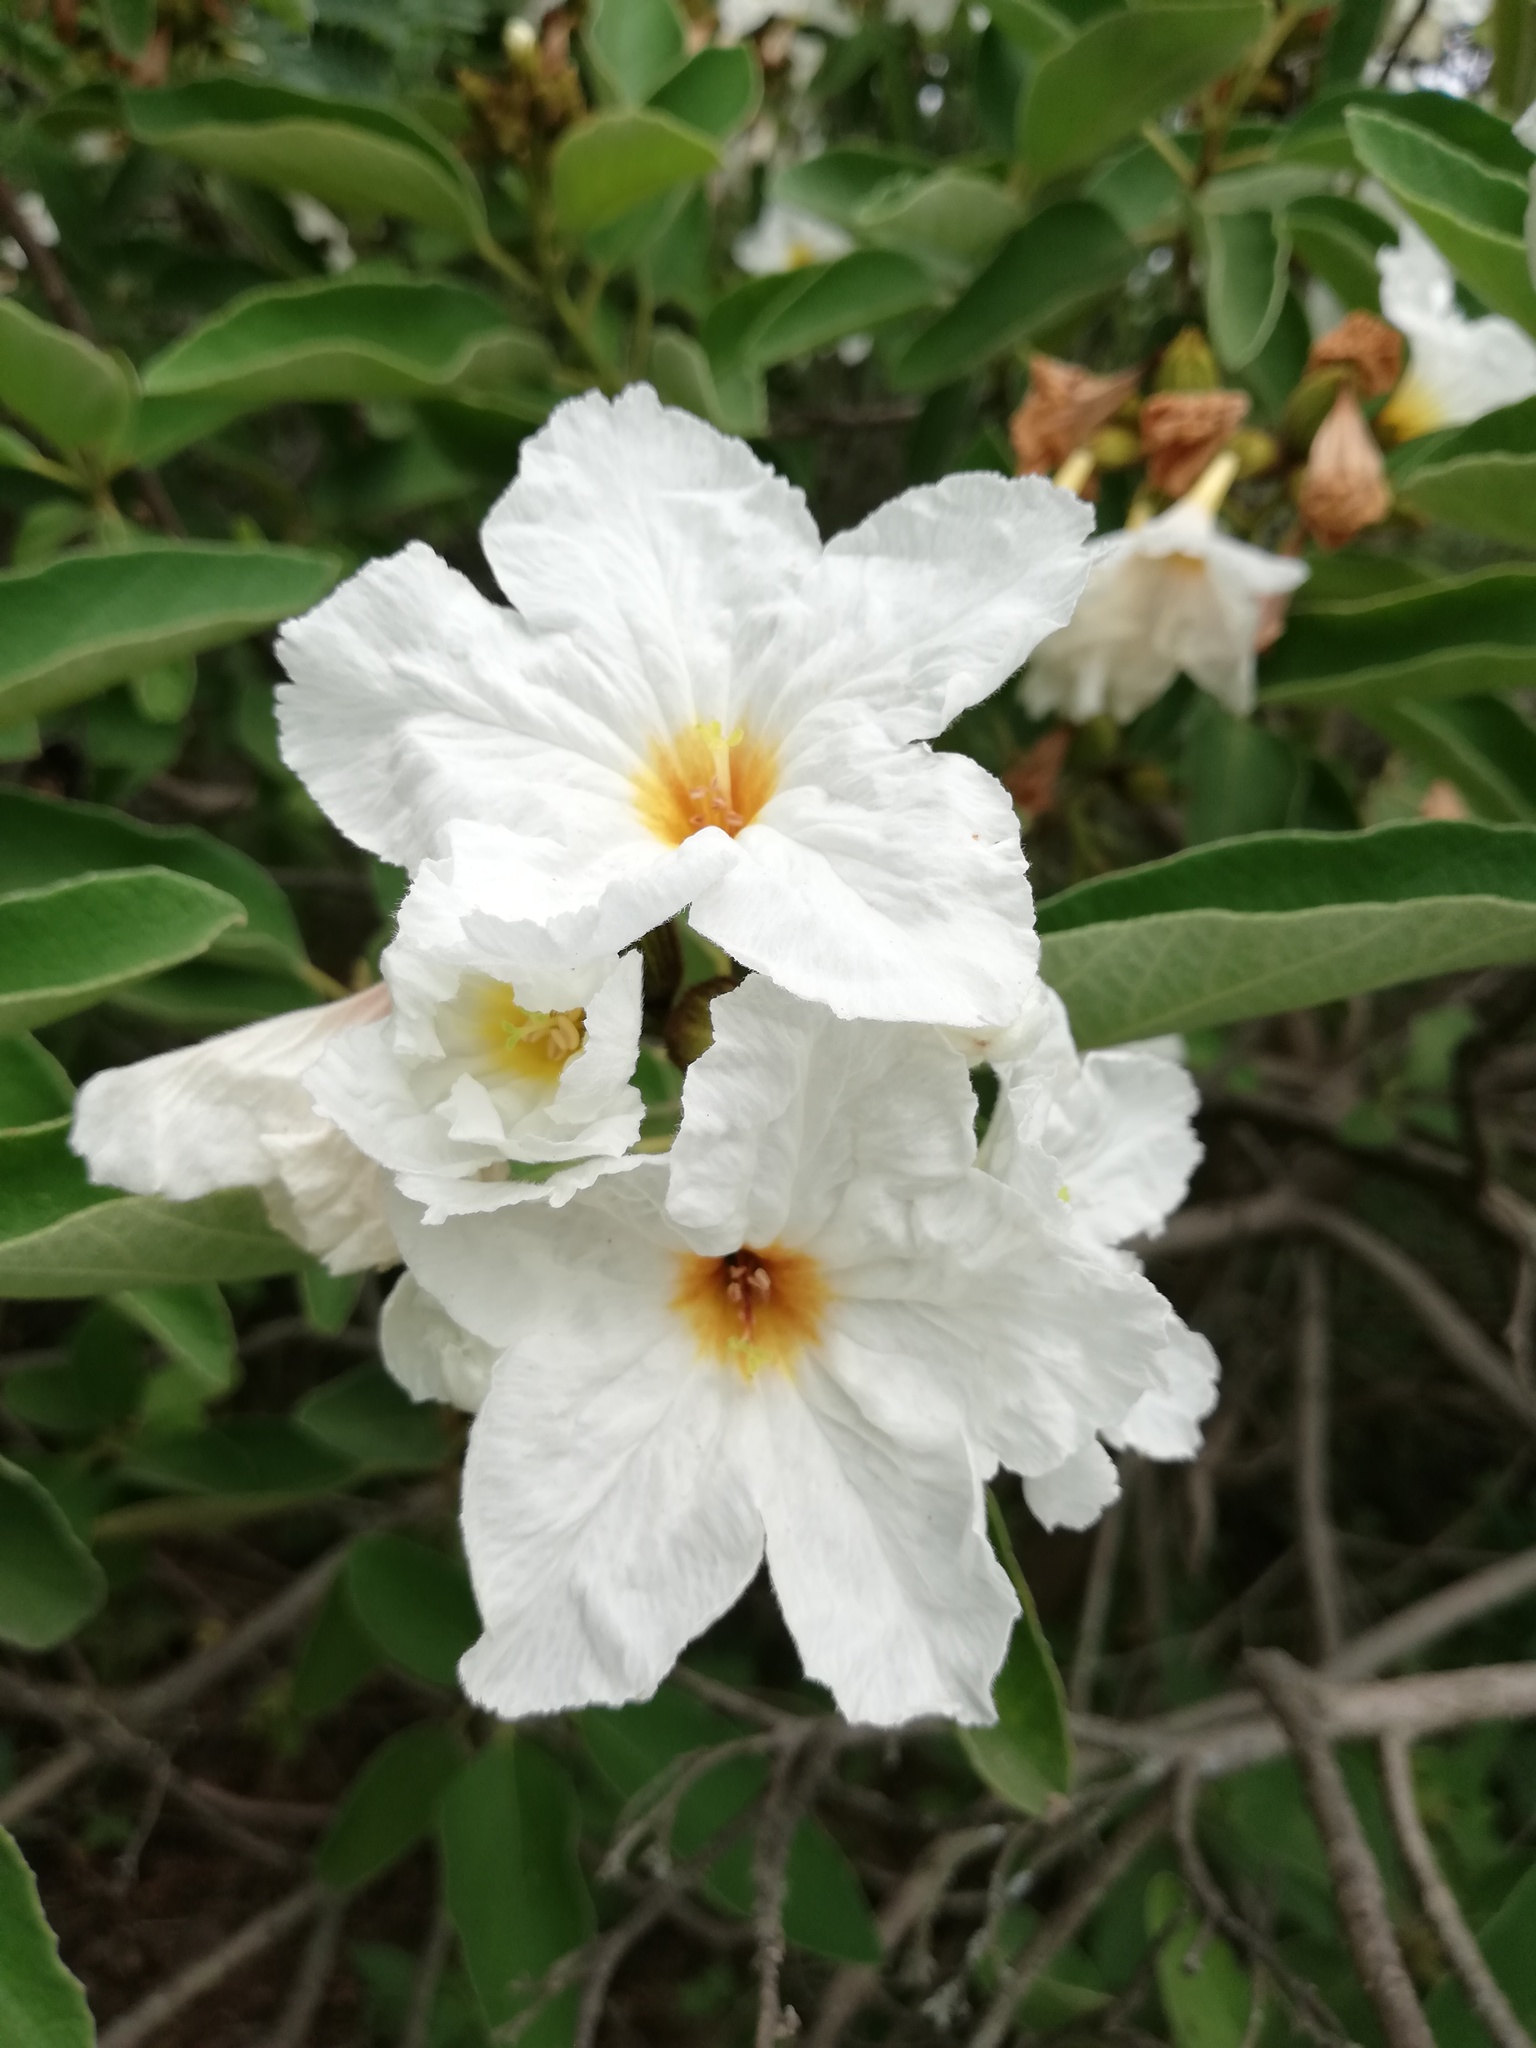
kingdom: Plantae
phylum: Tracheophyta
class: Magnoliopsida
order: Boraginales
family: Cordiaceae
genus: Cordia
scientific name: Cordia boissieri
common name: Mexican-olive
